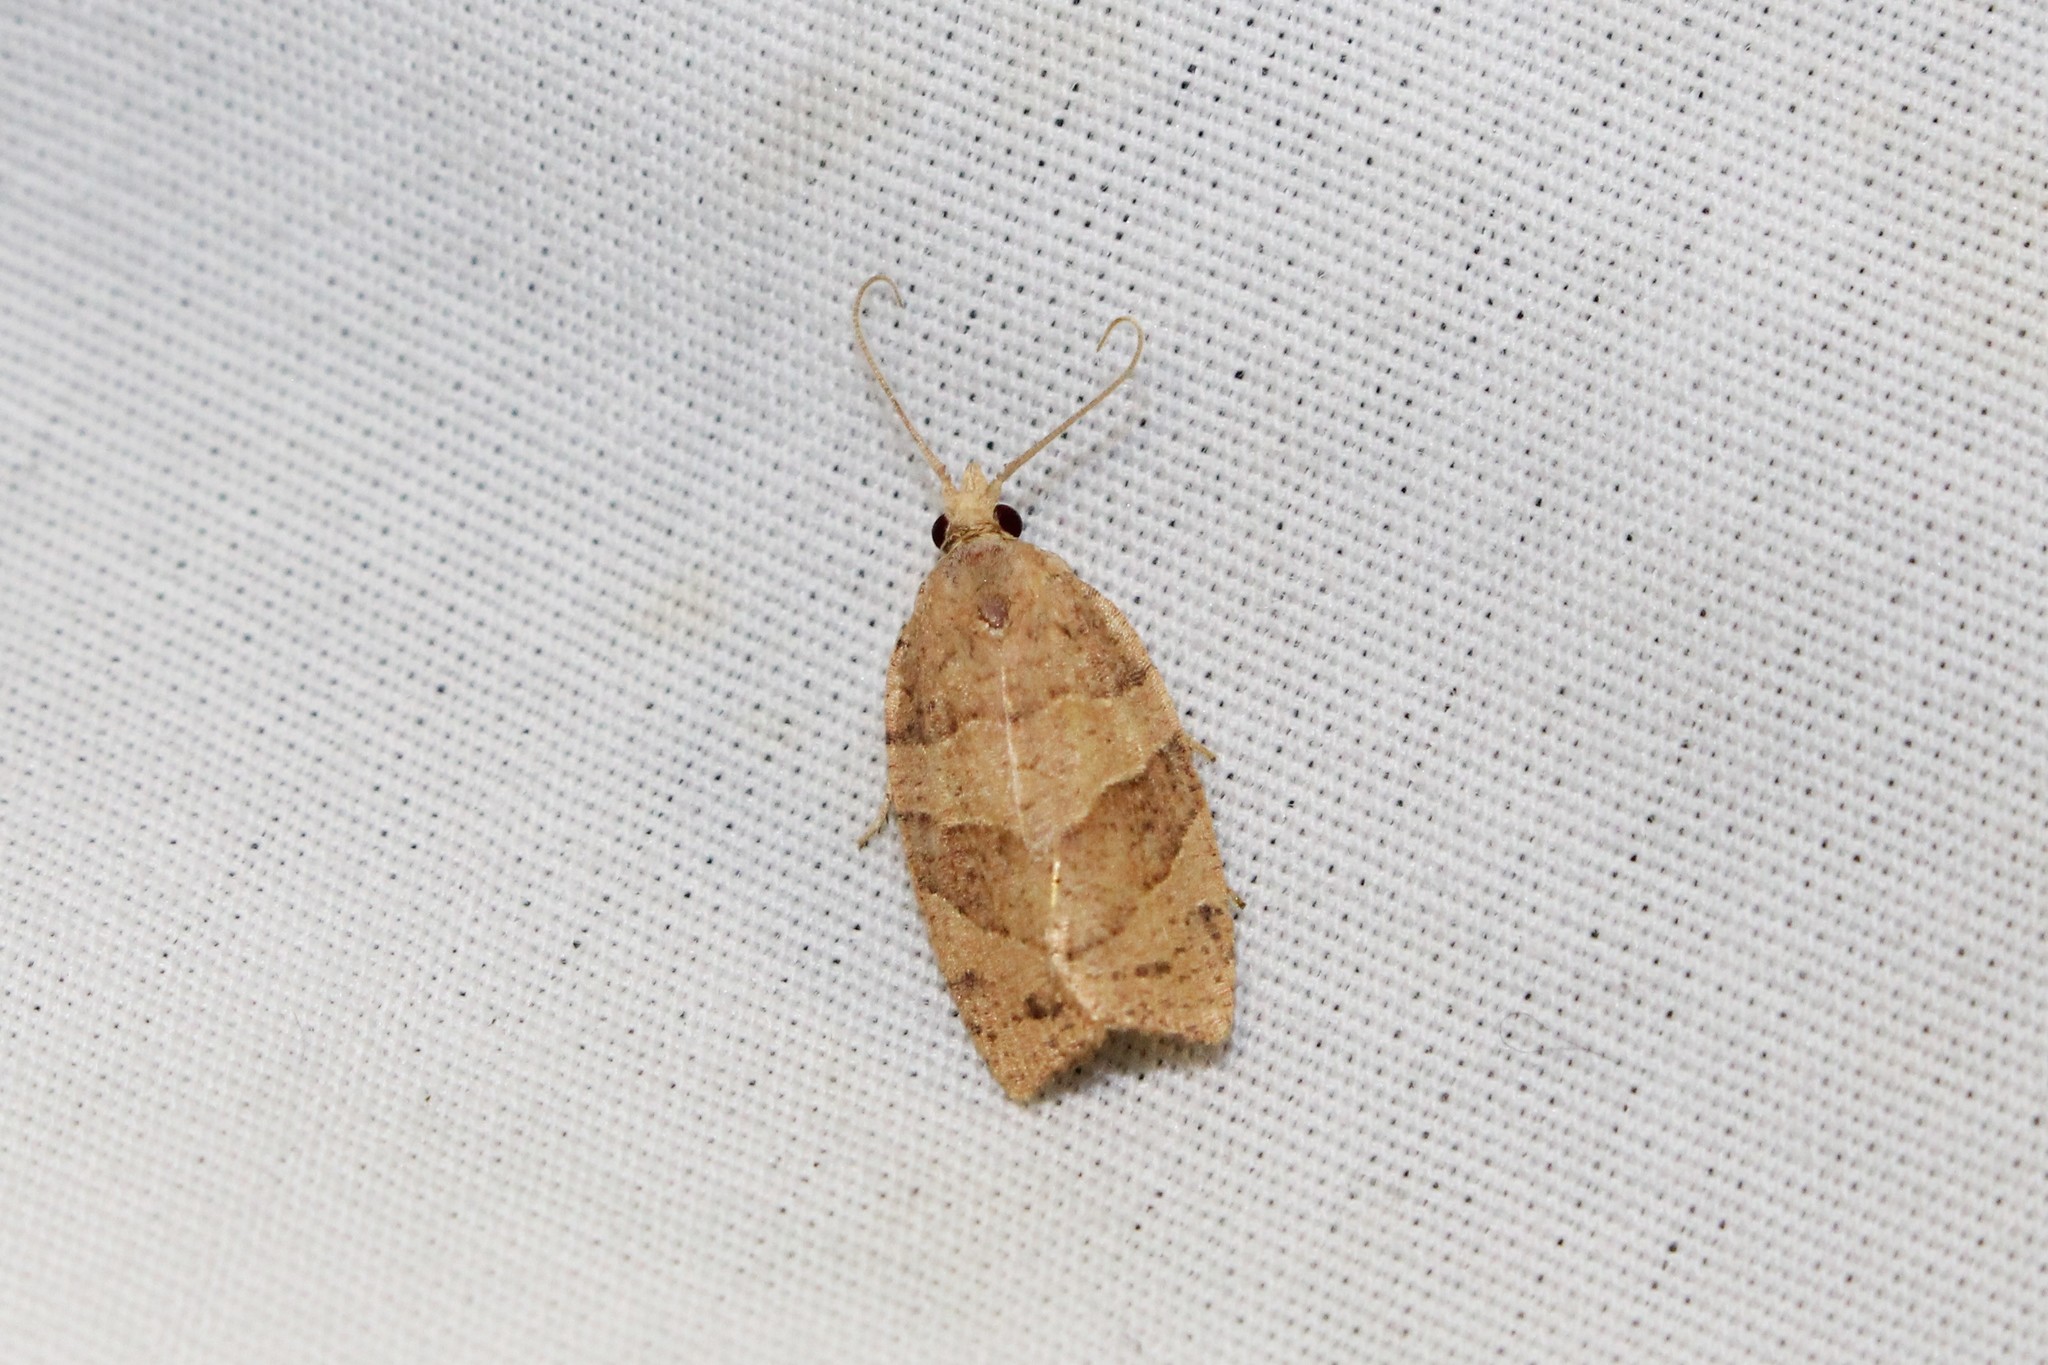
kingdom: Animalia
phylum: Arthropoda
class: Insecta
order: Lepidoptera
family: Tortricidae
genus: Pandemis
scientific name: Pandemis lamprosana
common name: Woodgrain leafroller moth
